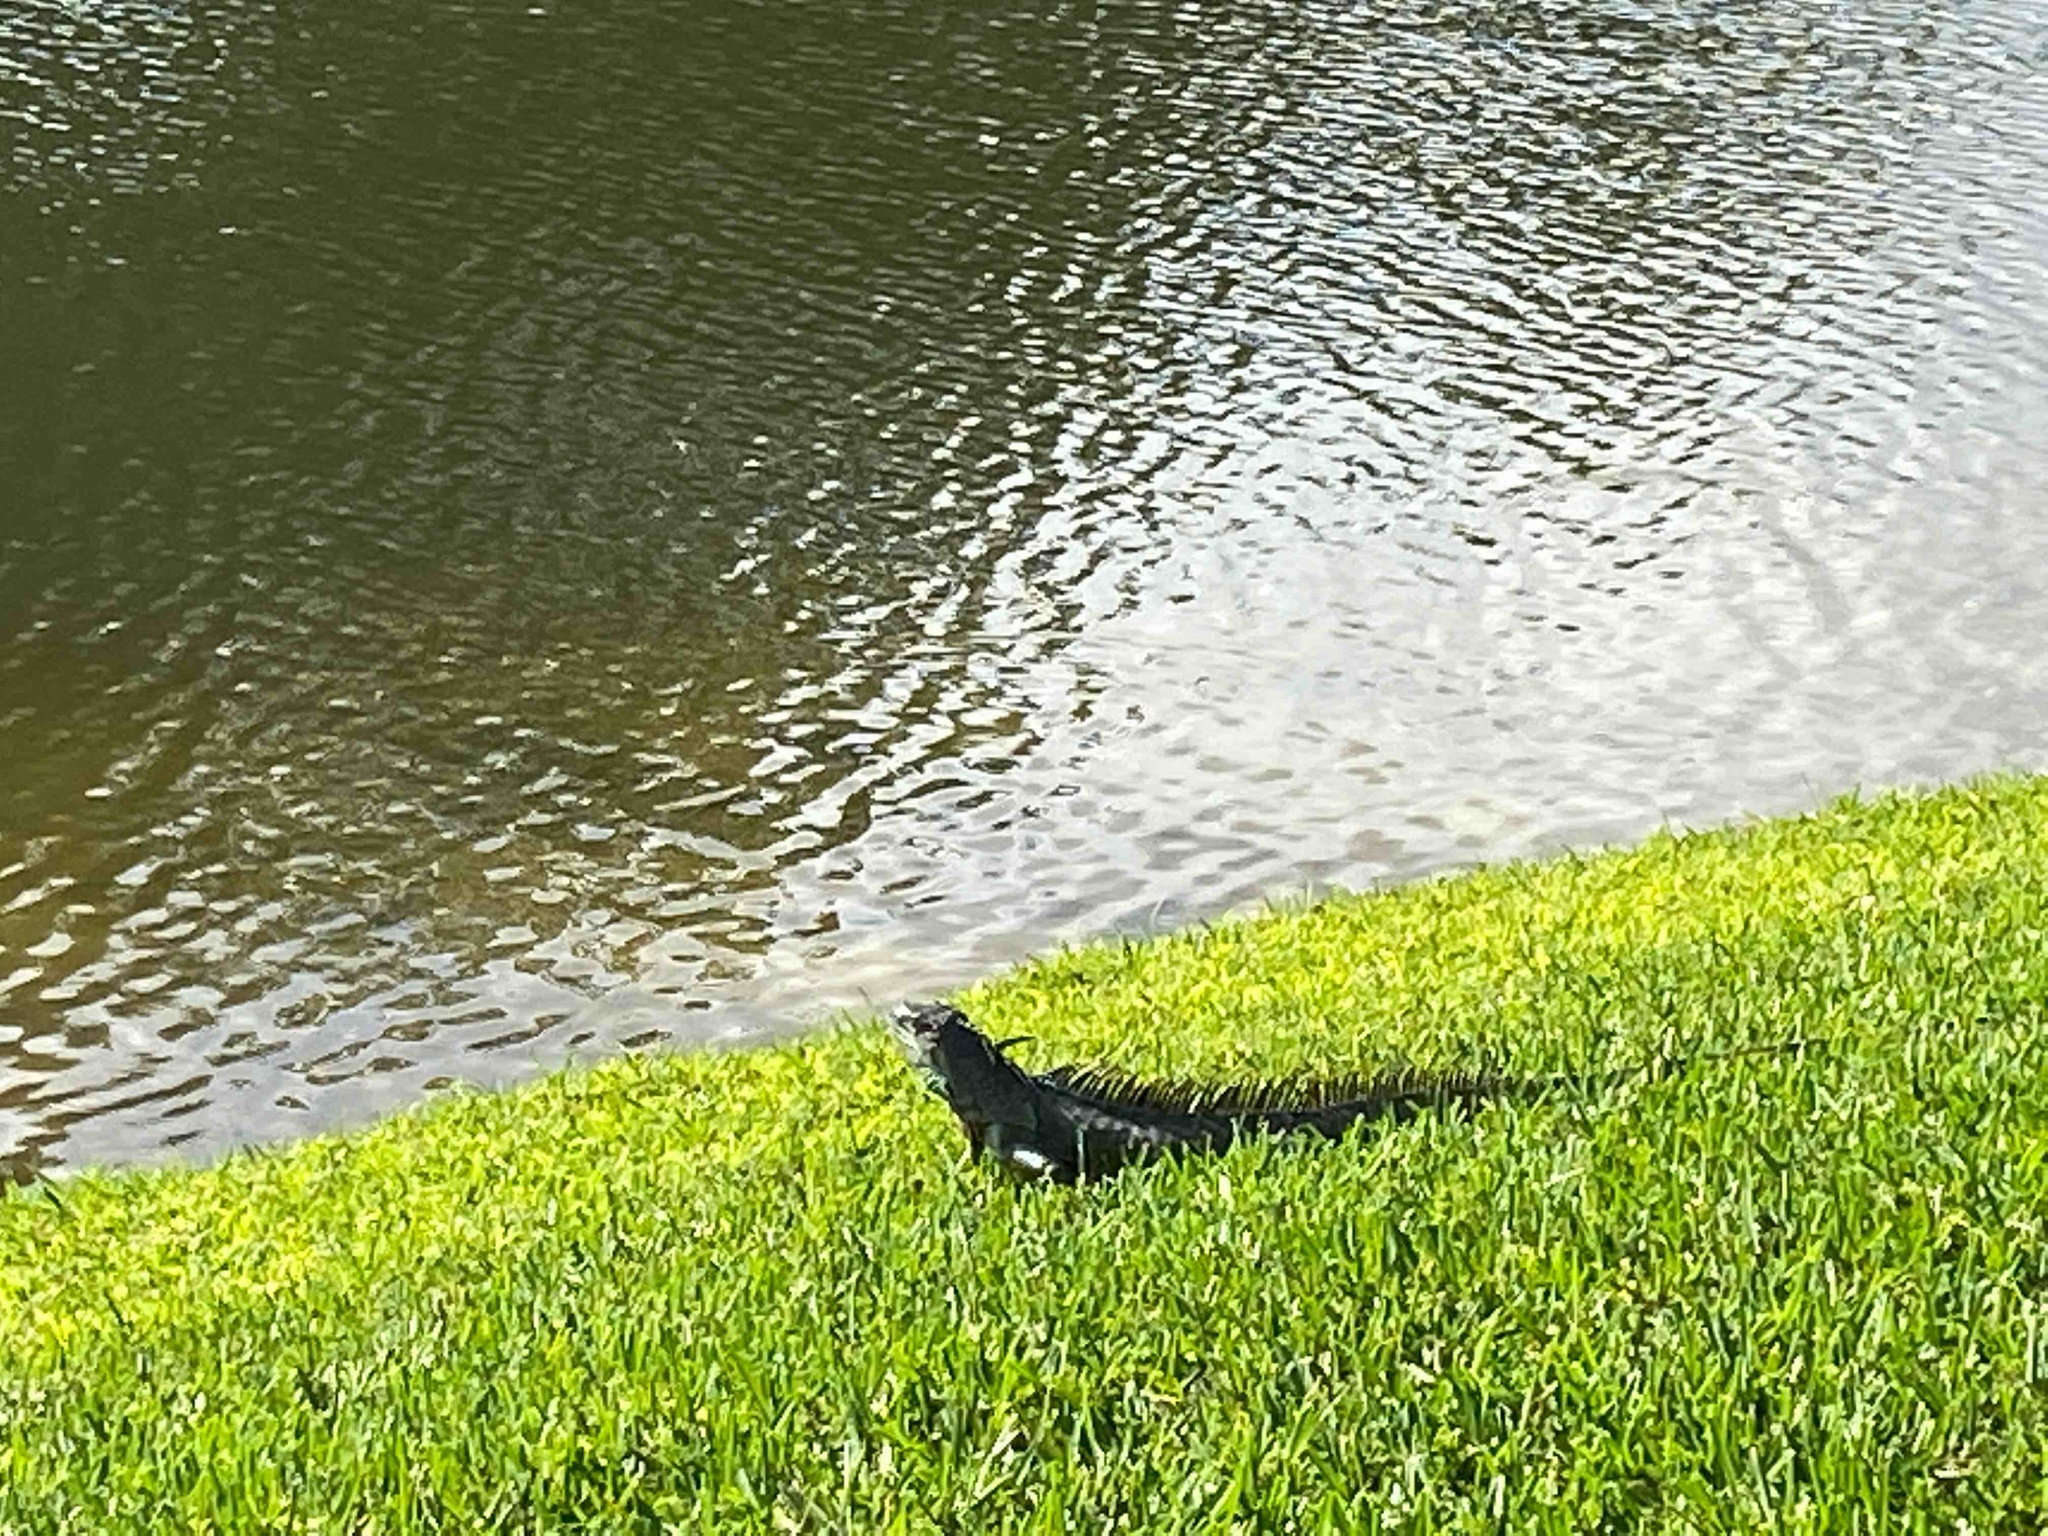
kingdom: Animalia
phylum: Chordata
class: Squamata
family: Iguanidae
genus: Iguana
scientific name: Iguana iguana
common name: Green iguana
